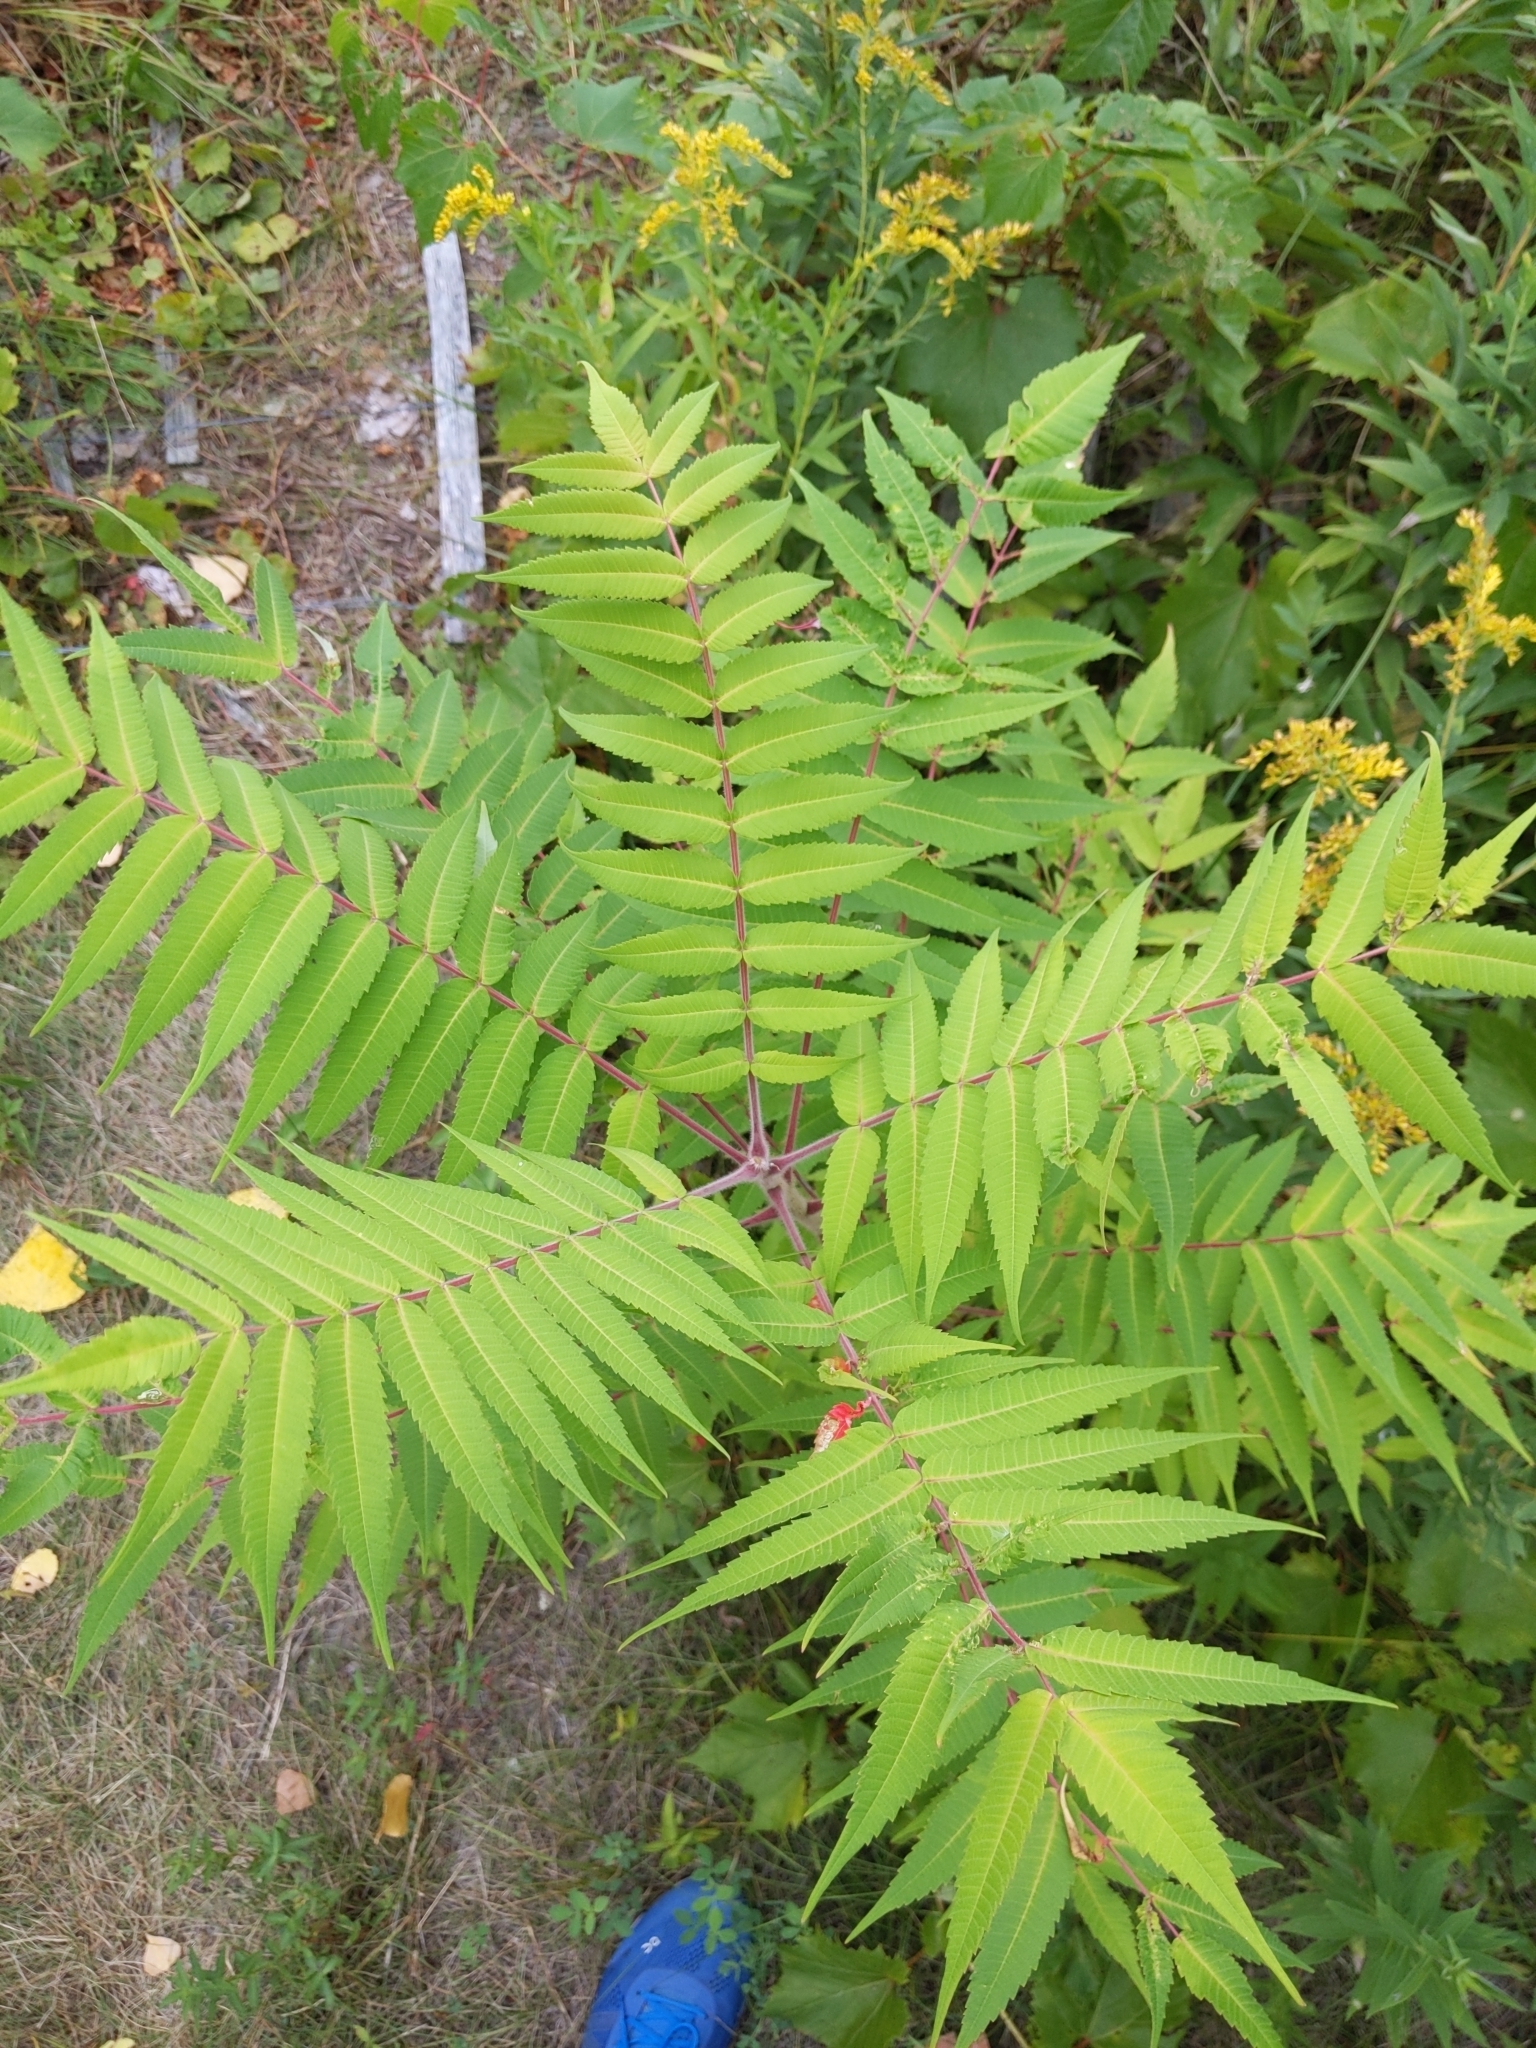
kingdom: Plantae
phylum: Tracheophyta
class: Magnoliopsida
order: Sapindales
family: Anacardiaceae
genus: Rhus
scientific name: Rhus typhina
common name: Staghorn sumac
